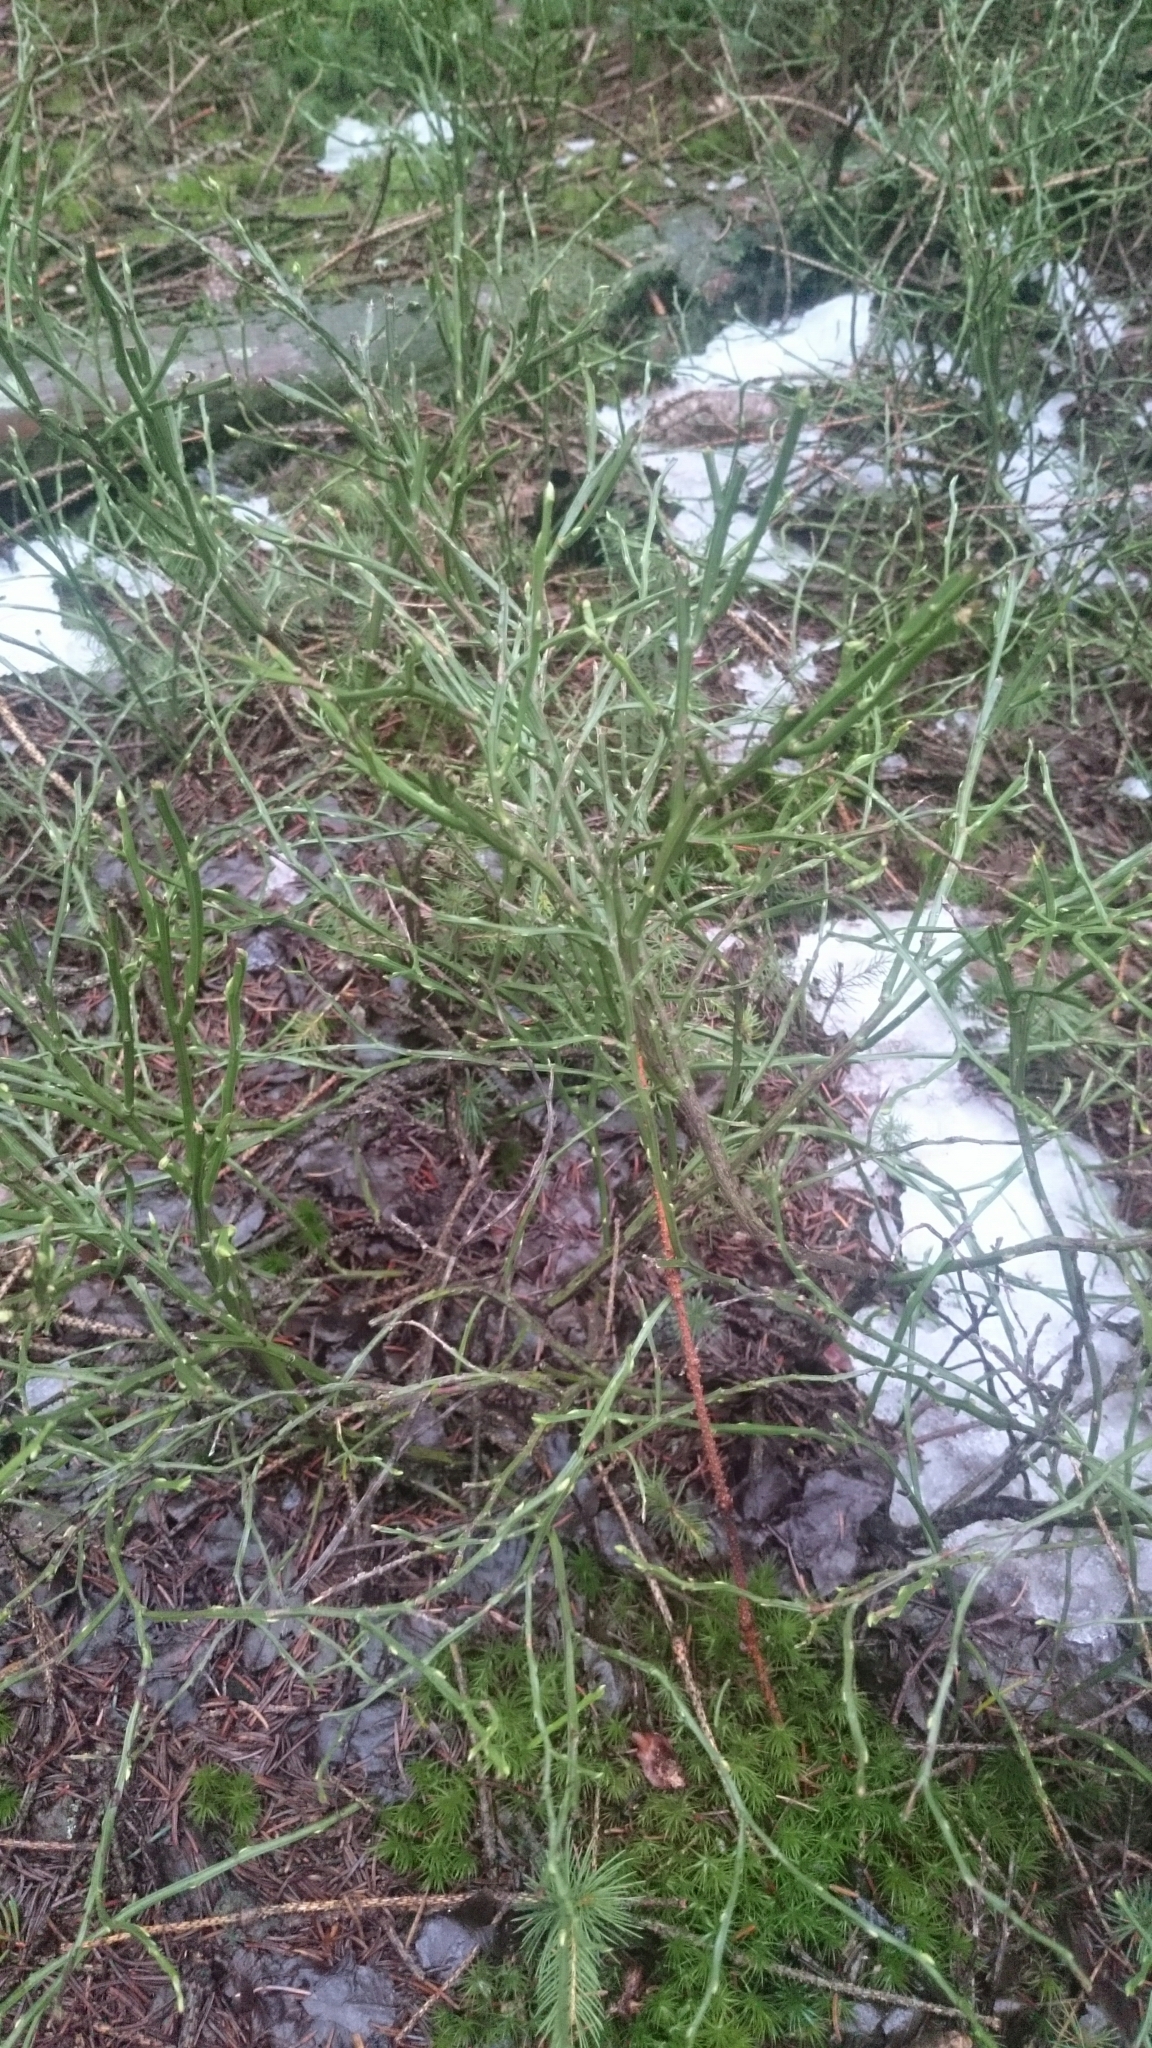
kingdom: Plantae
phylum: Tracheophyta
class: Magnoliopsida
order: Ericales
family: Ericaceae
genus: Vaccinium
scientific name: Vaccinium myrtillus
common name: Bilberry
